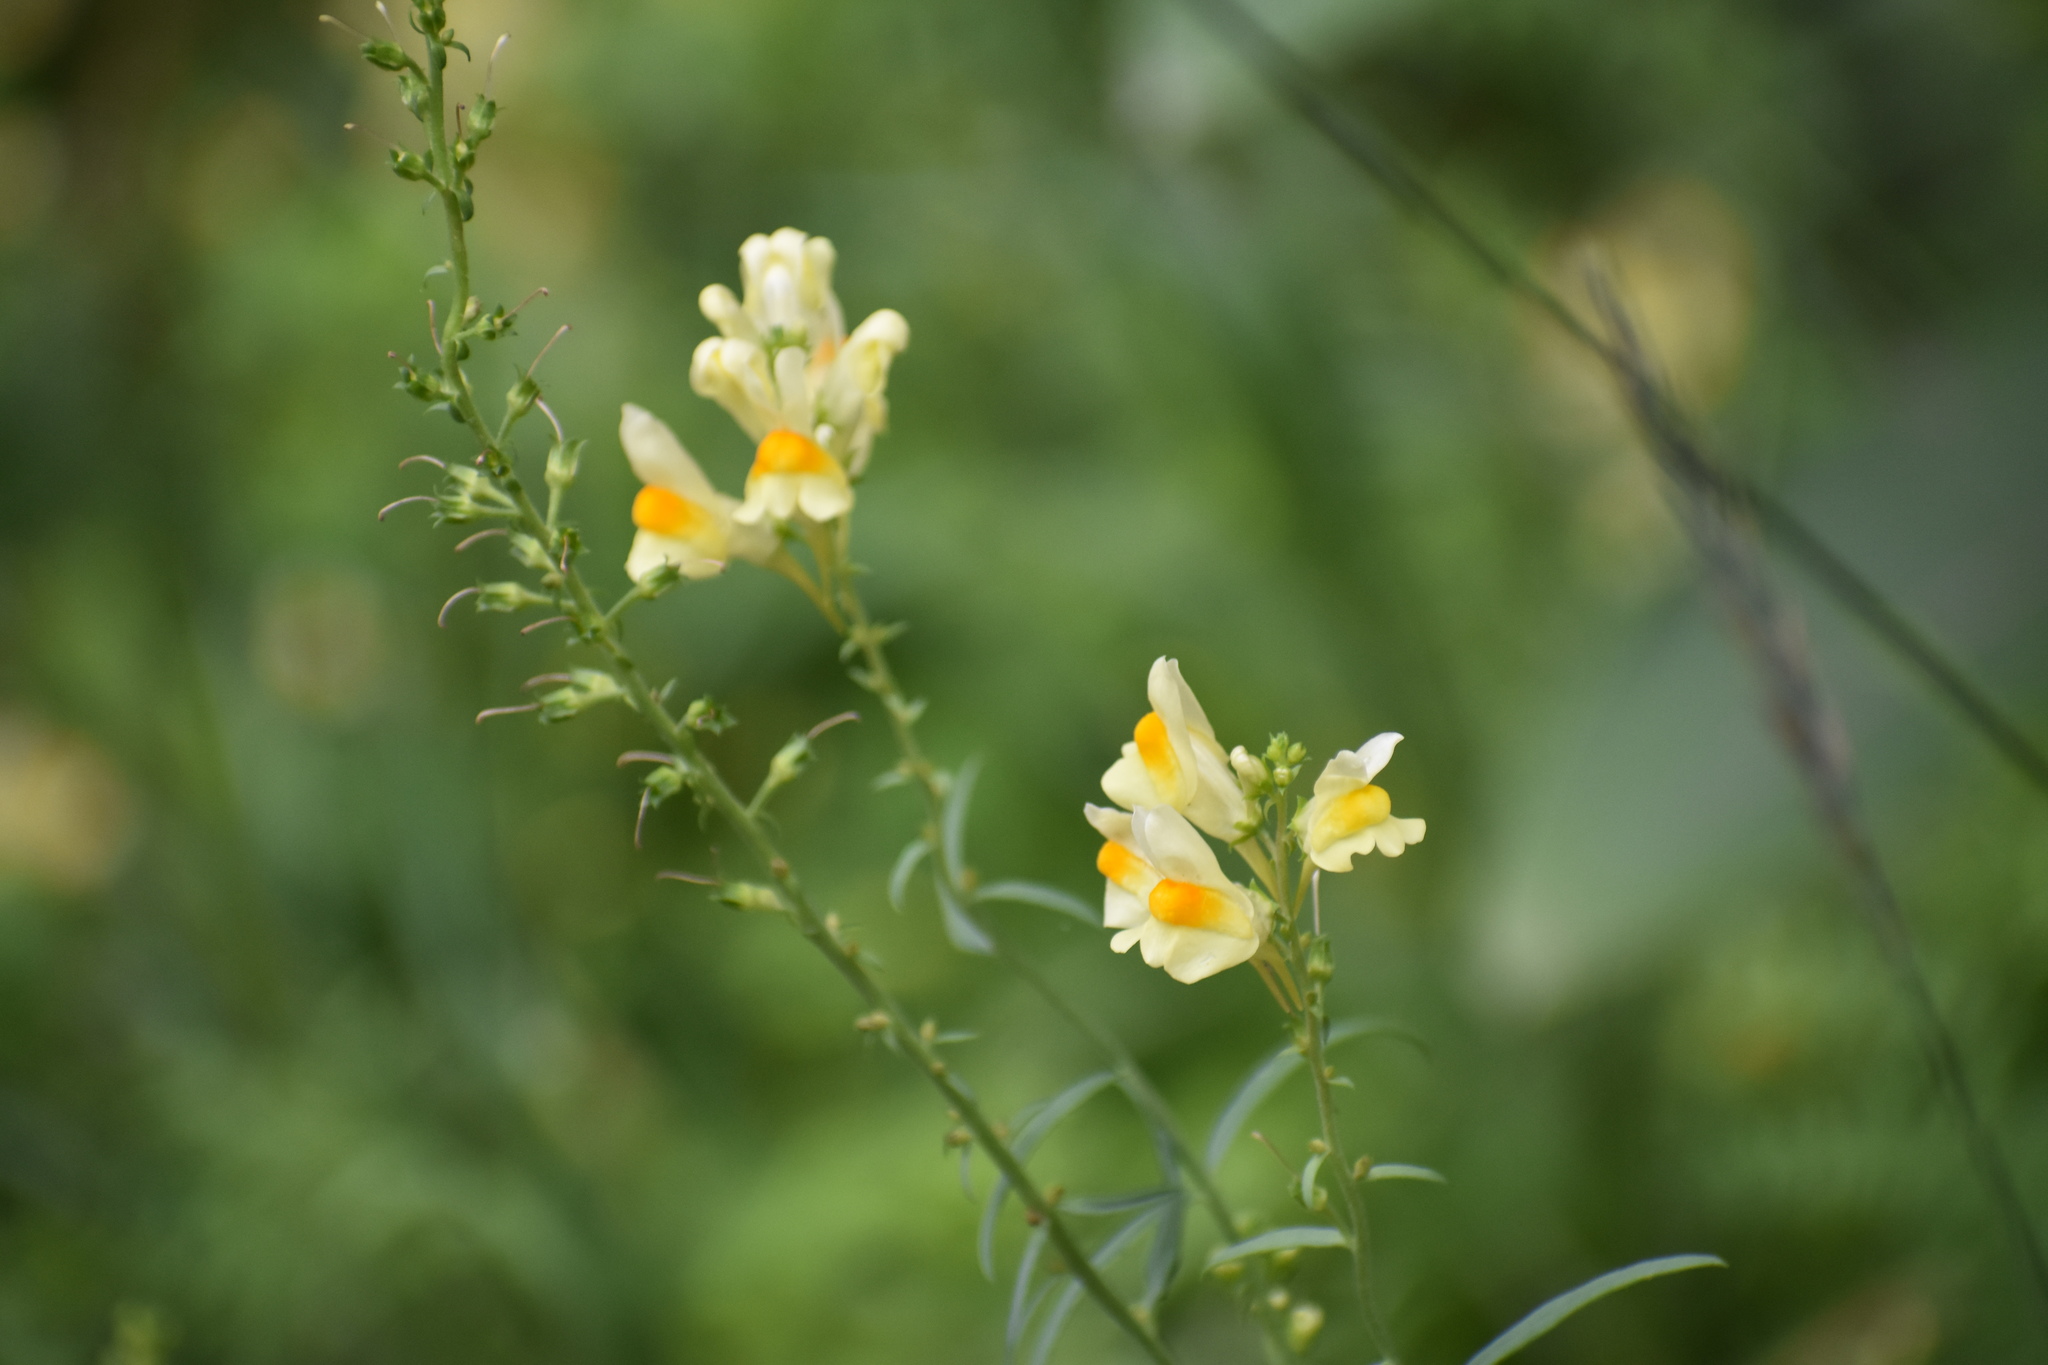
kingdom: Plantae
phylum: Tracheophyta
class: Magnoliopsida
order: Lamiales
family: Plantaginaceae
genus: Linaria
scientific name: Linaria vulgaris
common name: Butter and eggs
